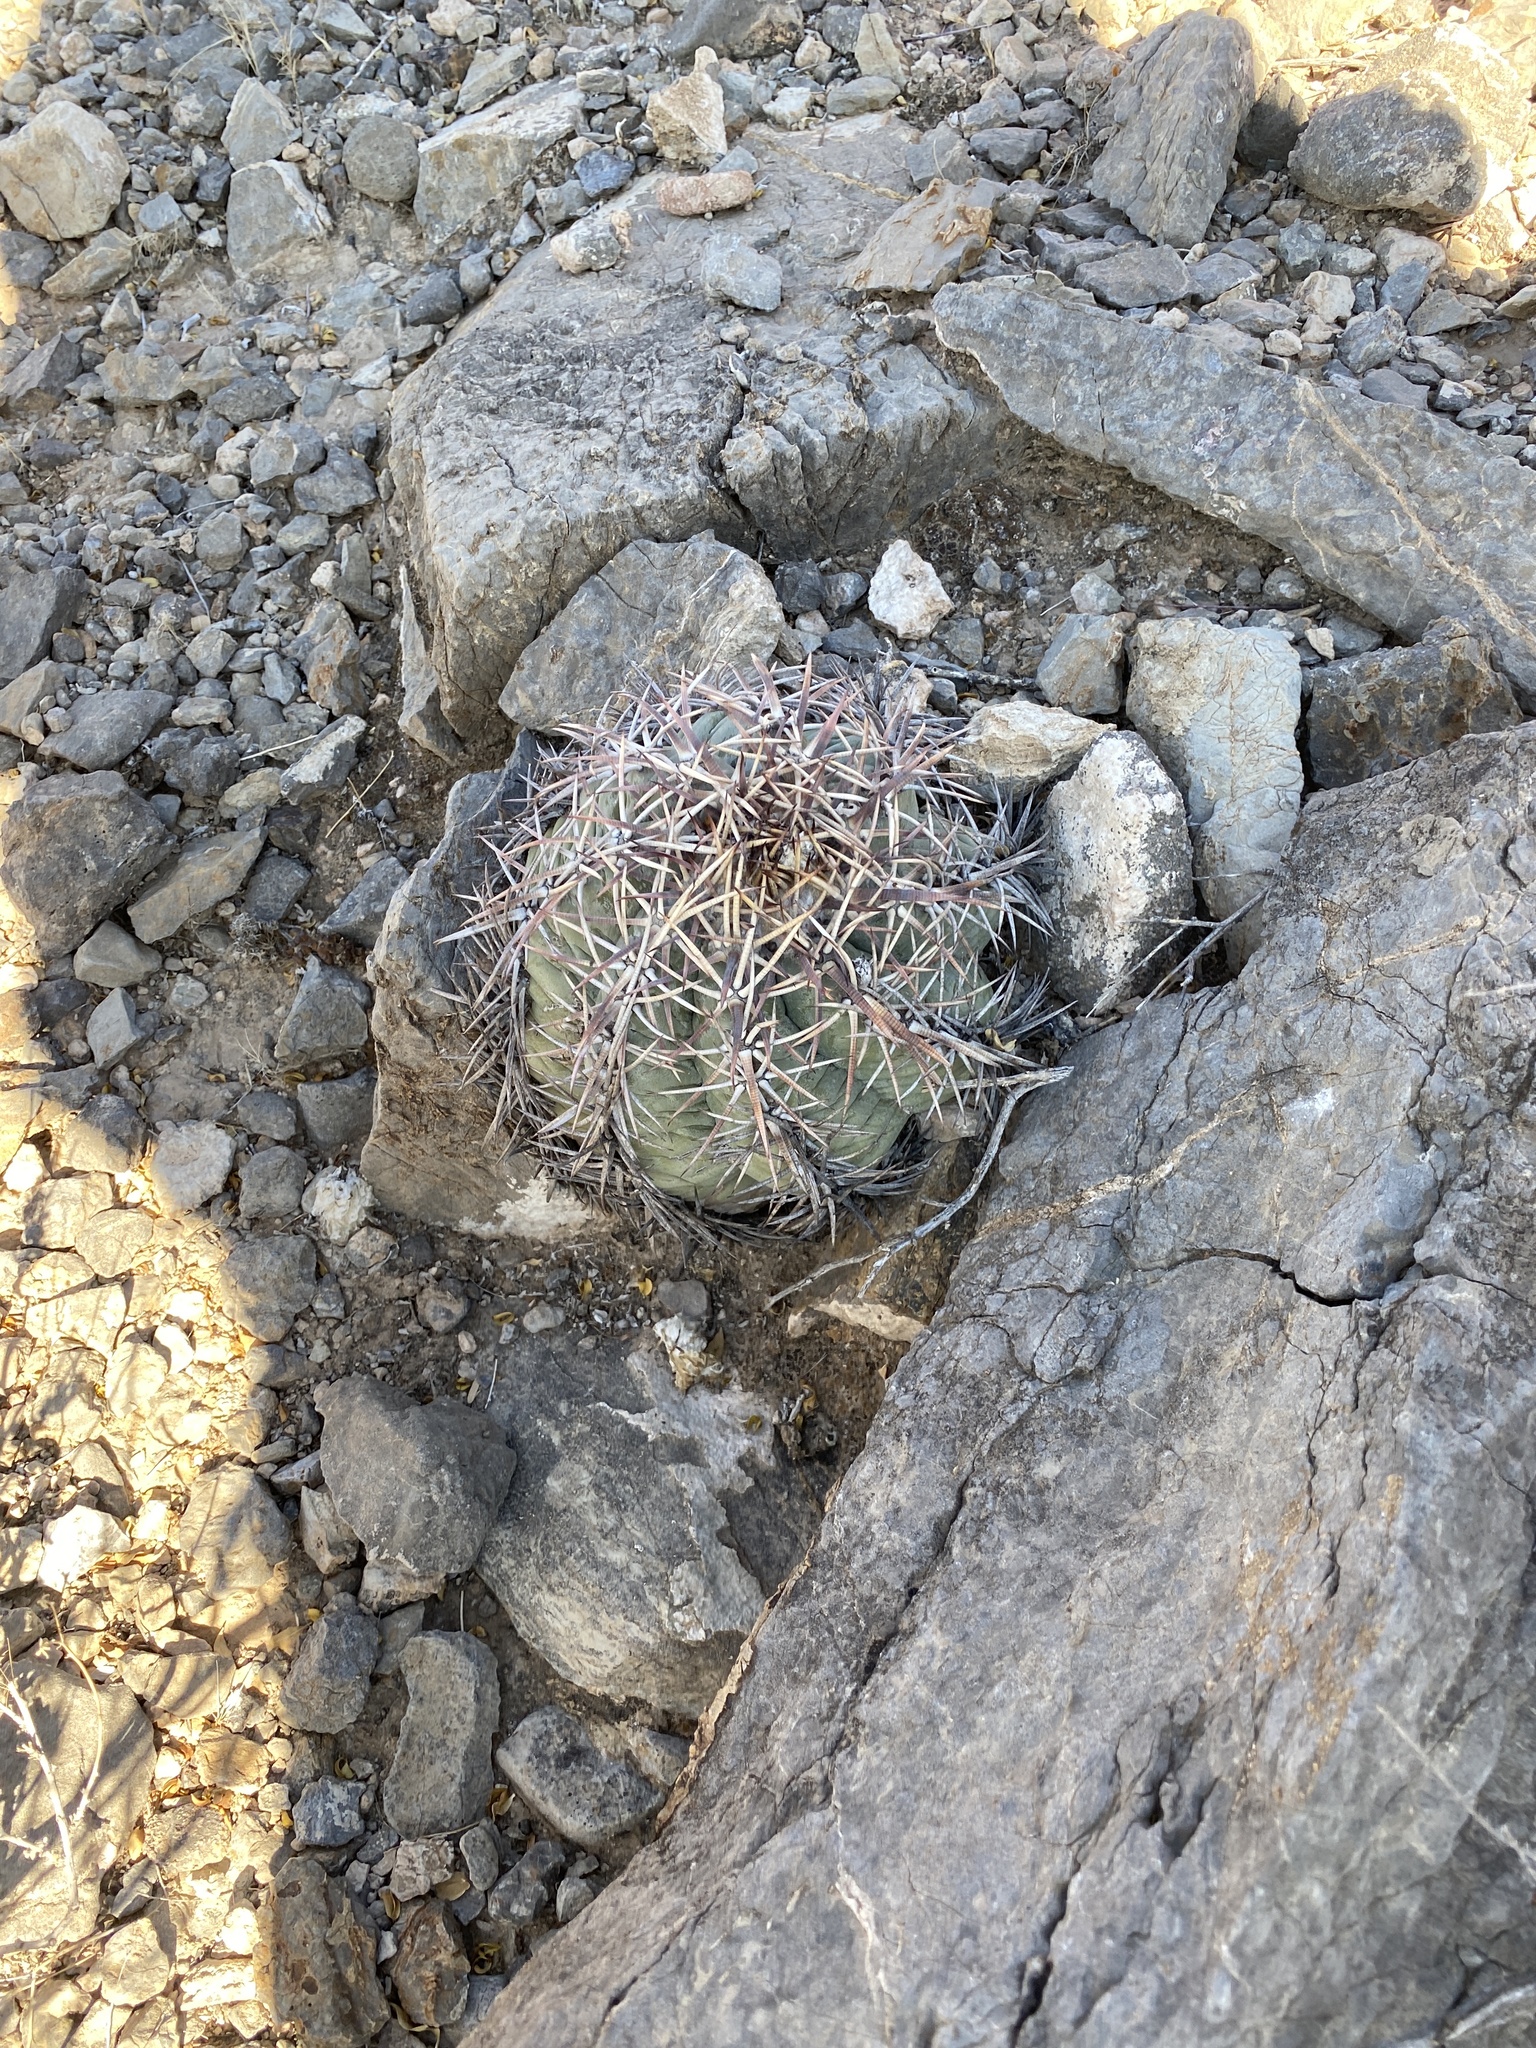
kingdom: Plantae
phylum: Tracheophyta
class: Magnoliopsida
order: Caryophyllales
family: Cactaceae
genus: Echinocactus
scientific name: Echinocactus horizonthalonius
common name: Devilshead
